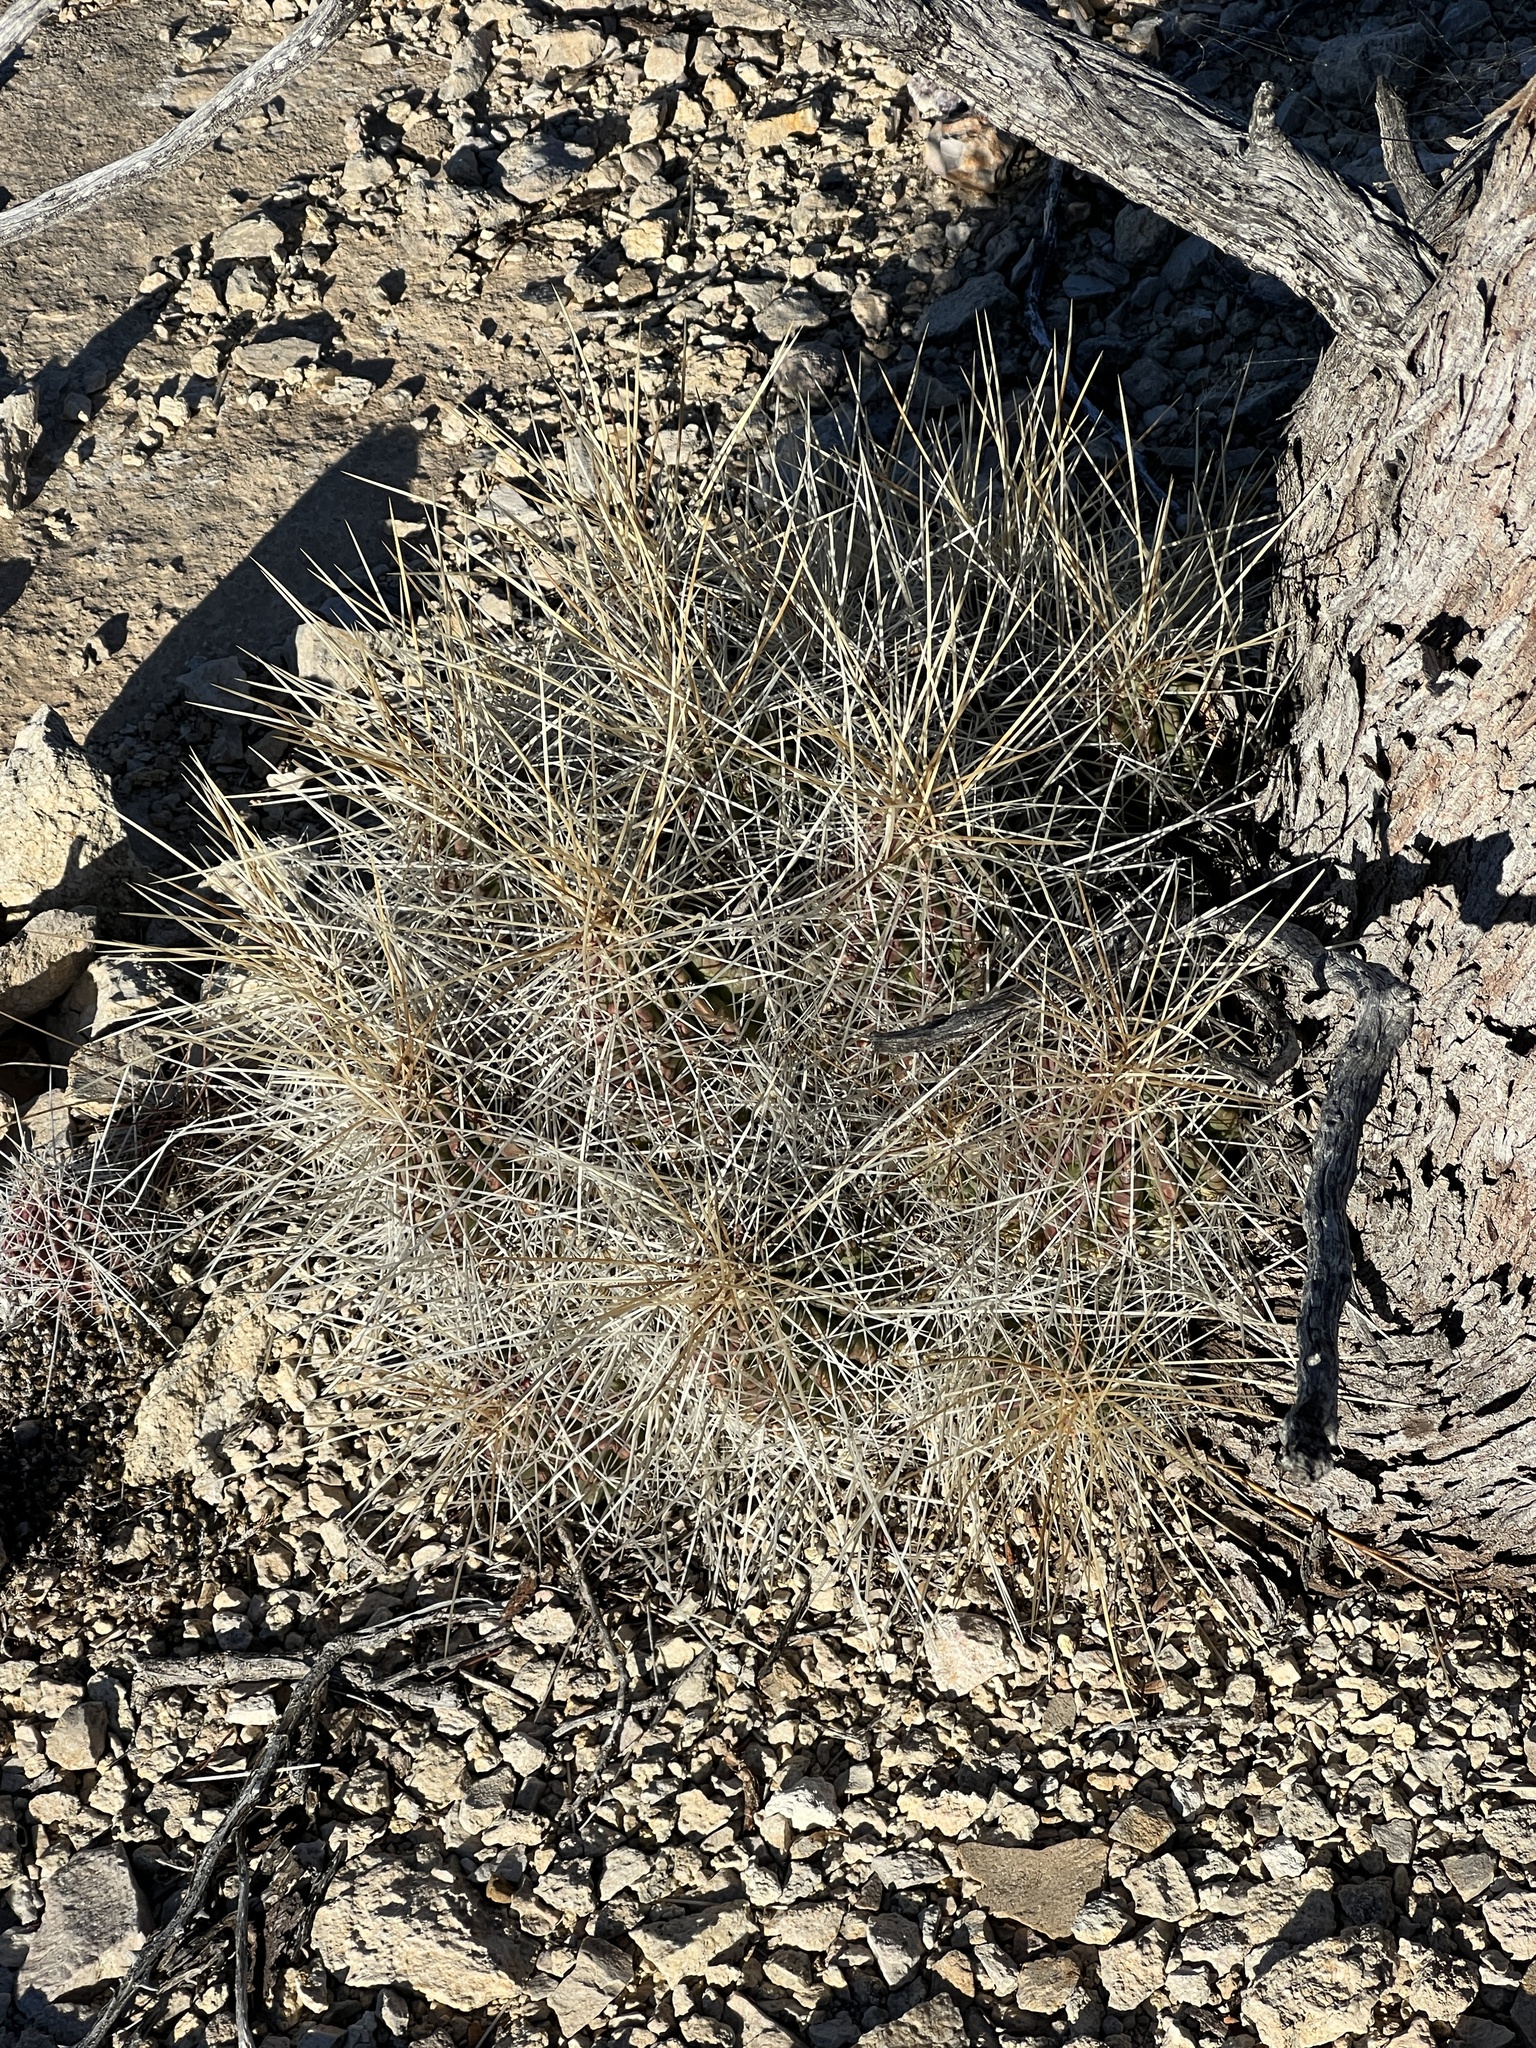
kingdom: Plantae
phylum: Tracheophyta
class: Magnoliopsida
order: Caryophyllales
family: Cactaceae
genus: Echinocereus
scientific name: Echinocereus stramineus
